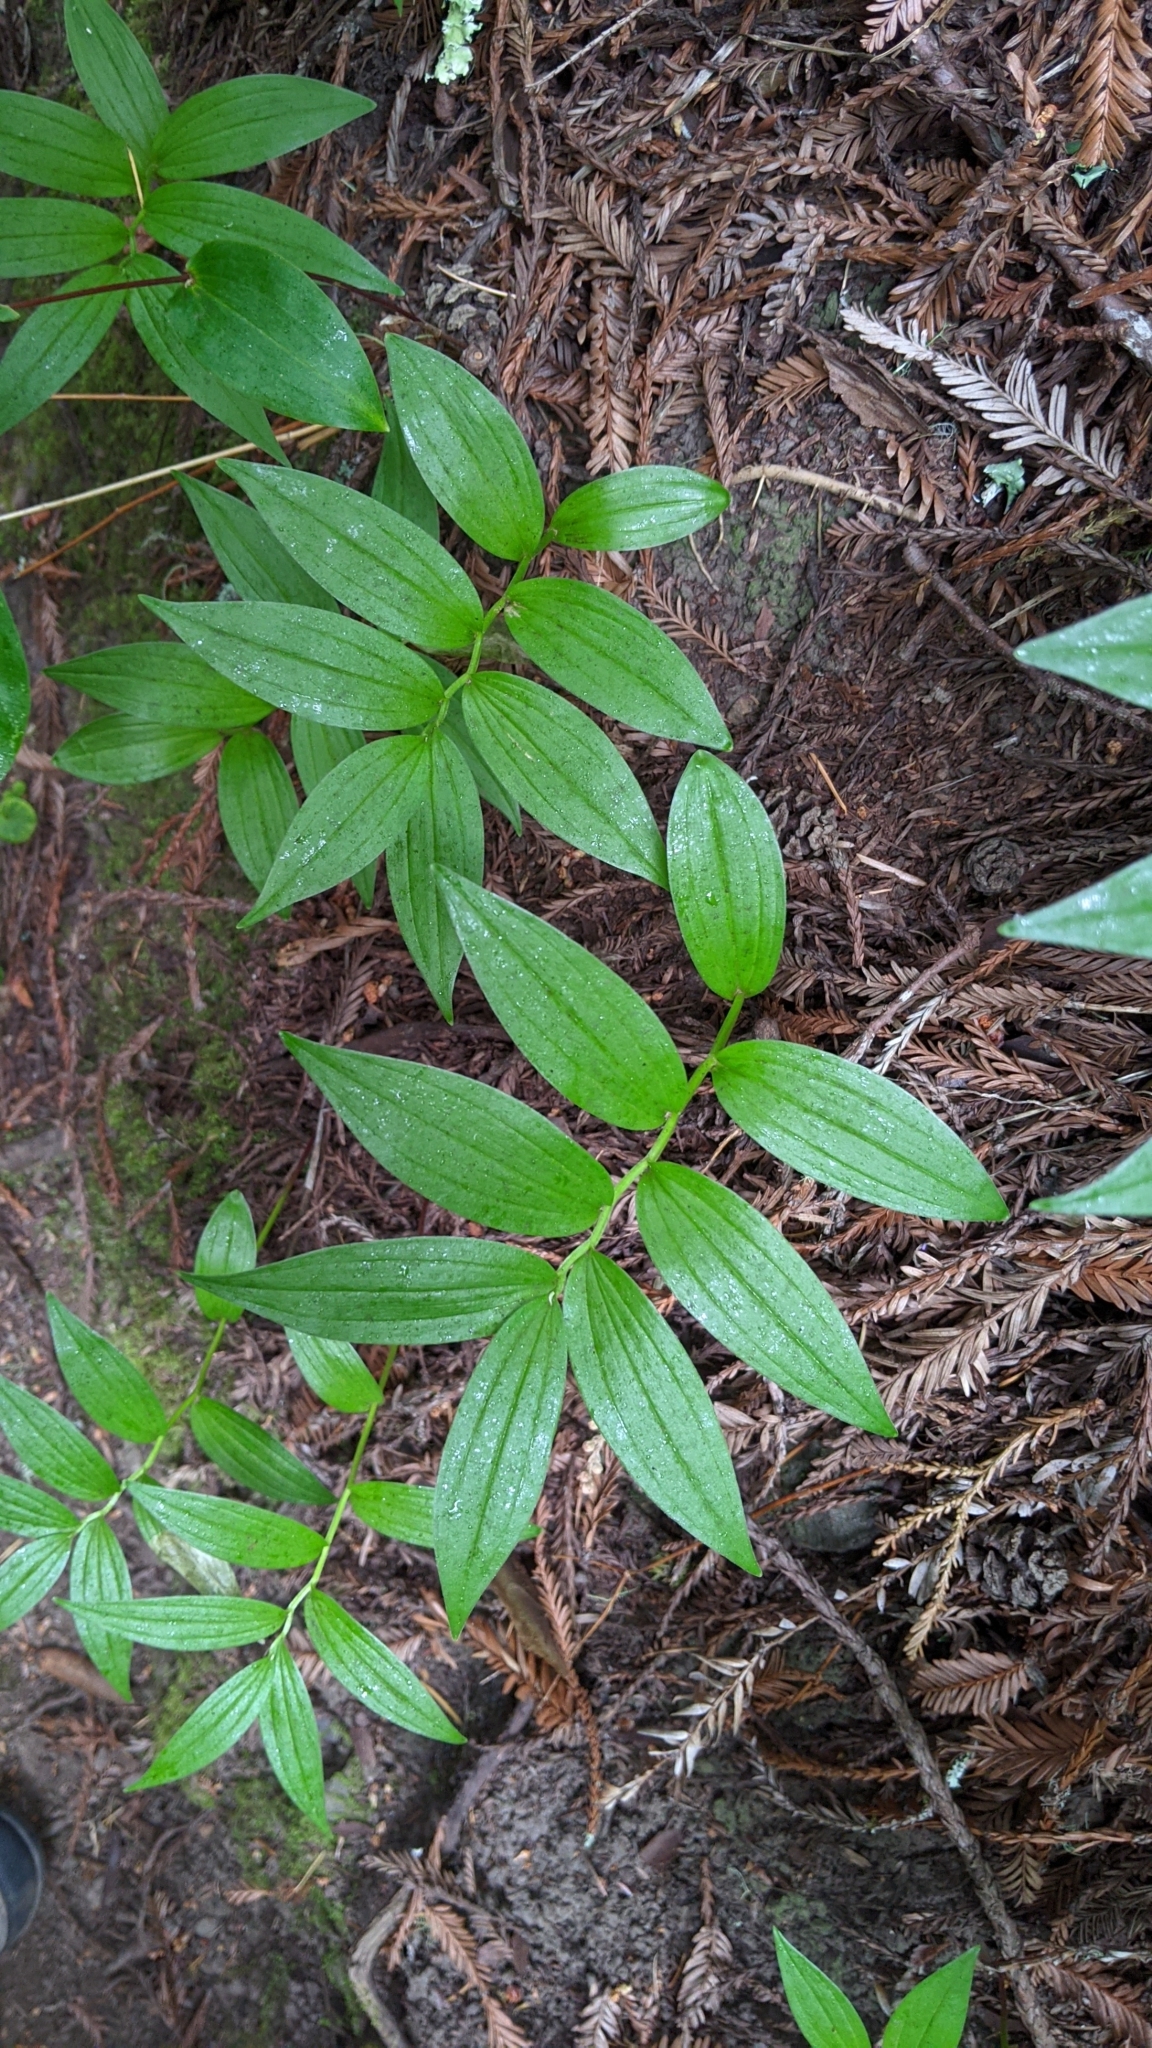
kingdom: Plantae
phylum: Tracheophyta
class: Liliopsida
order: Asparagales
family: Asparagaceae
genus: Maianthemum
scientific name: Maianthemum stellatum
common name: Little false solomon's seal
